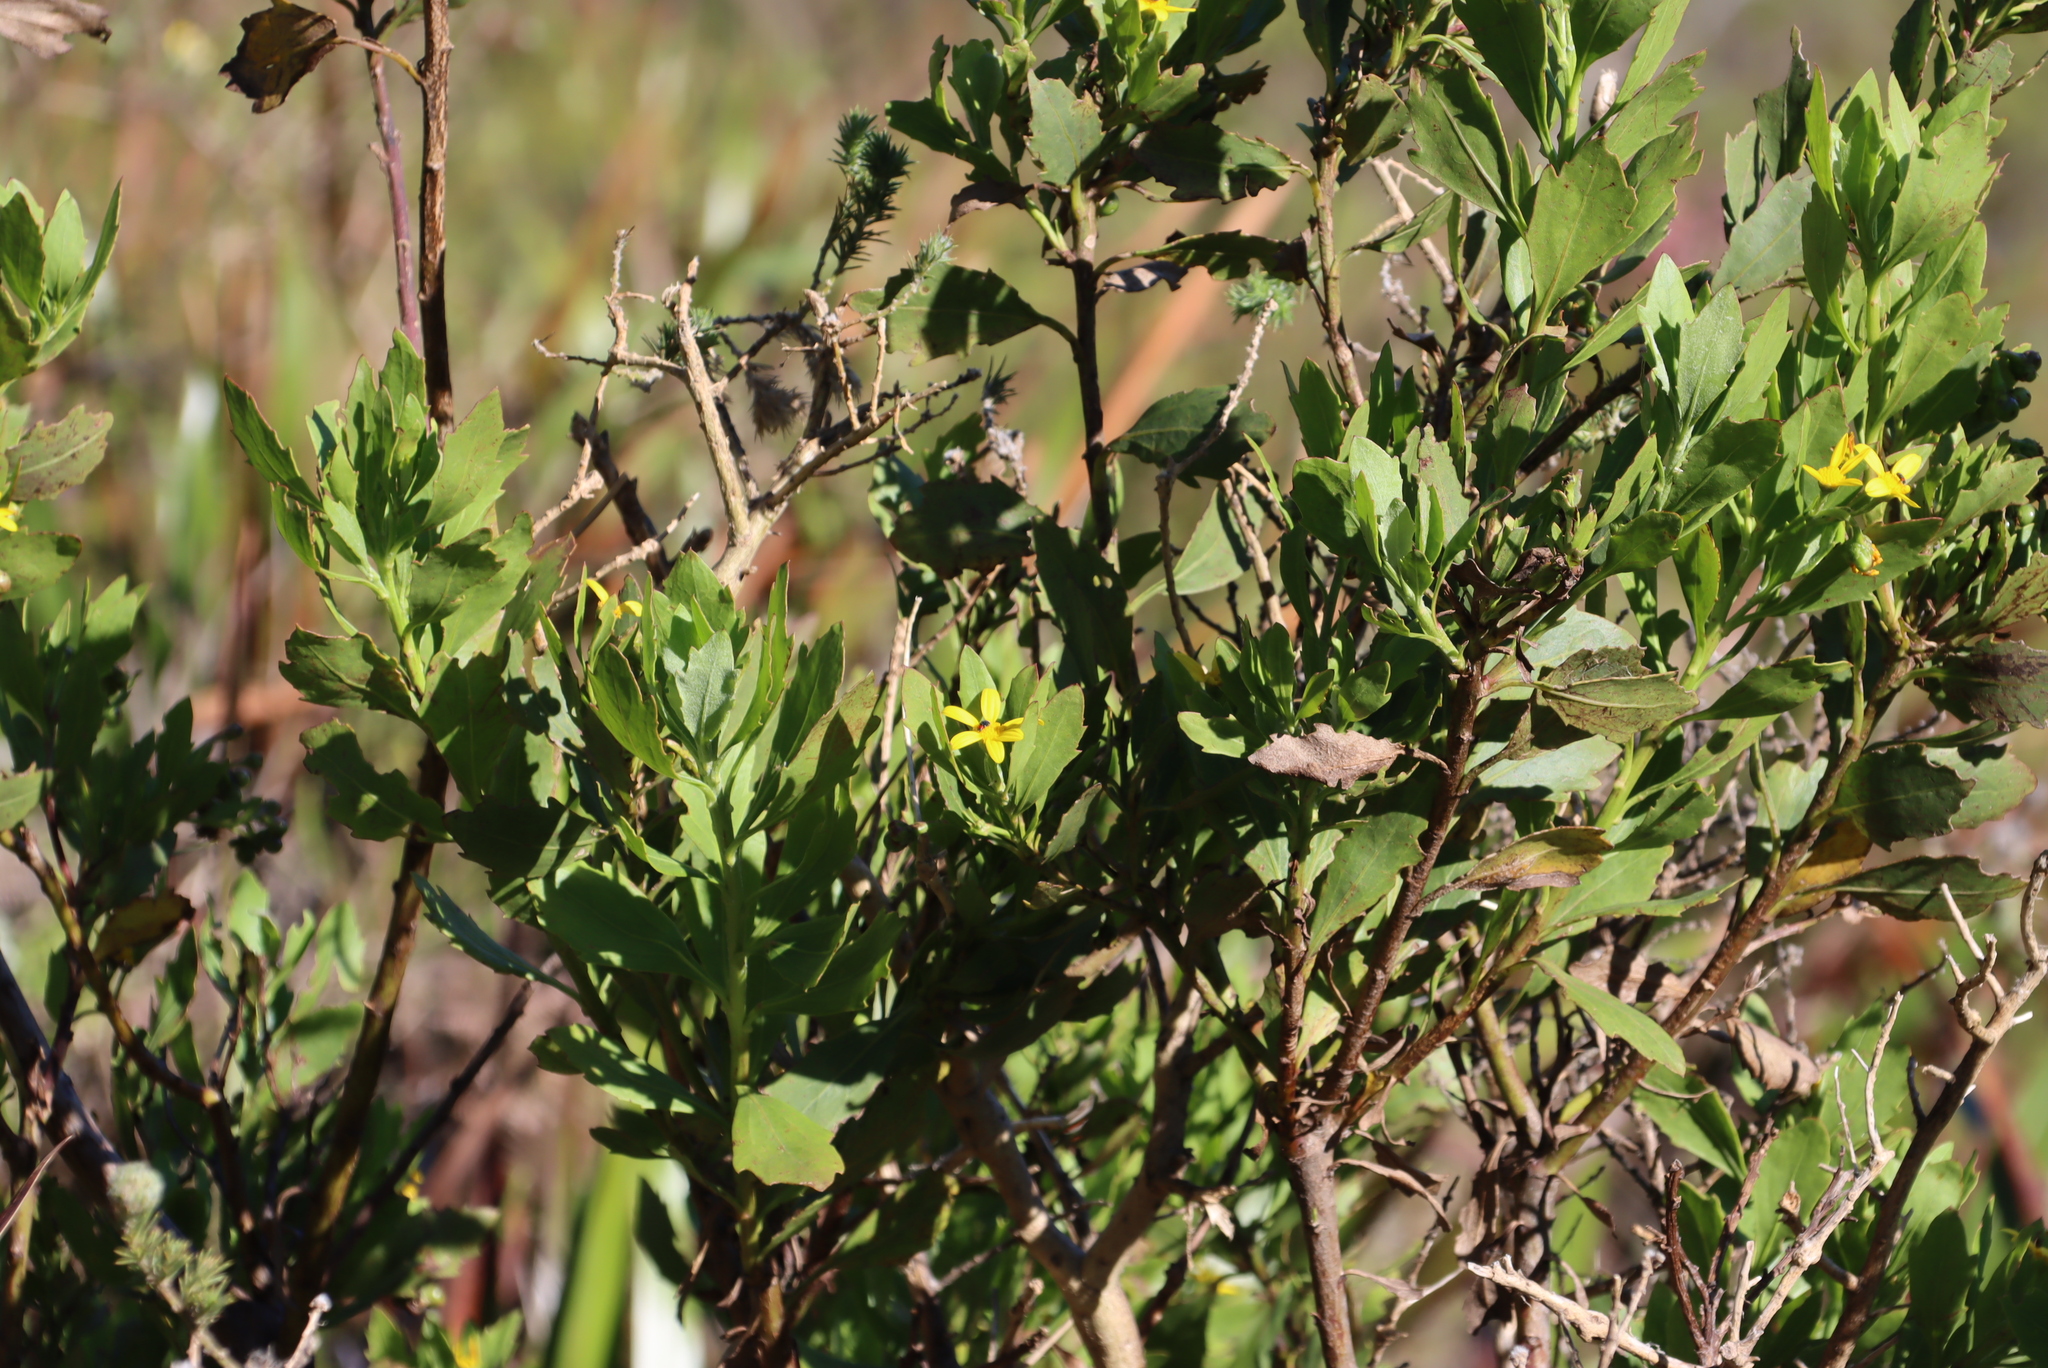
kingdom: Plantae
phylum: Tracheophyta
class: Magnoliopsida
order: Asterales
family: Asteraceae
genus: Osteospermum
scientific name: Osteospermum moniliferum
